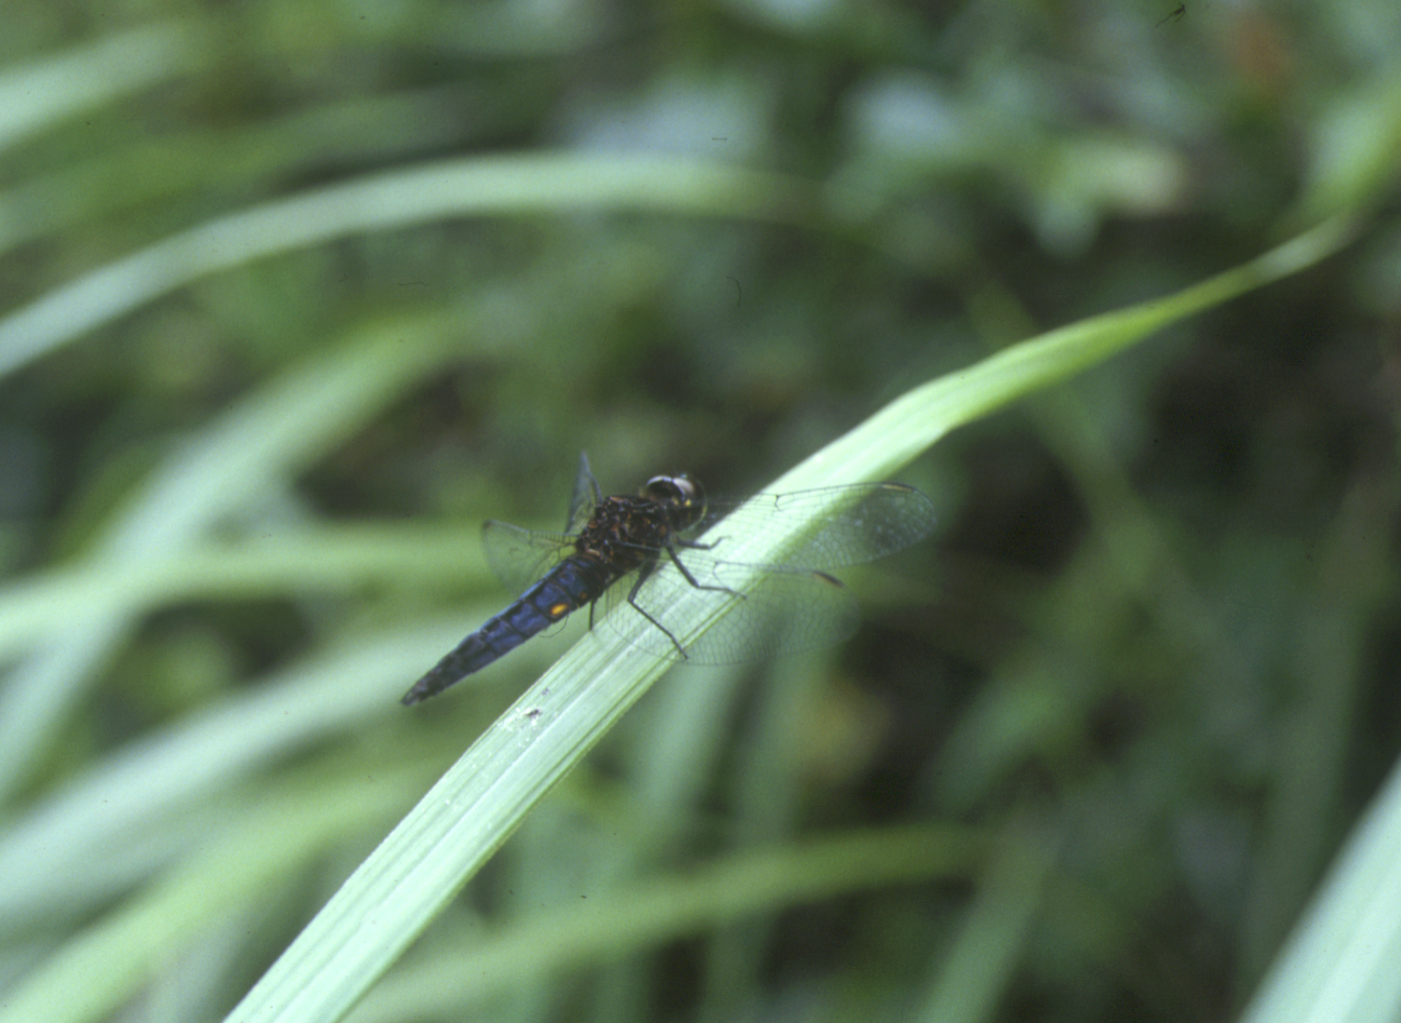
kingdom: Animalia
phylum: Arthropoda
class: Insecta
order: Odonata
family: Libellulidae
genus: Lyriothemis
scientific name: Lyriothemis pachygastra
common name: Wide-bellied skimmer
